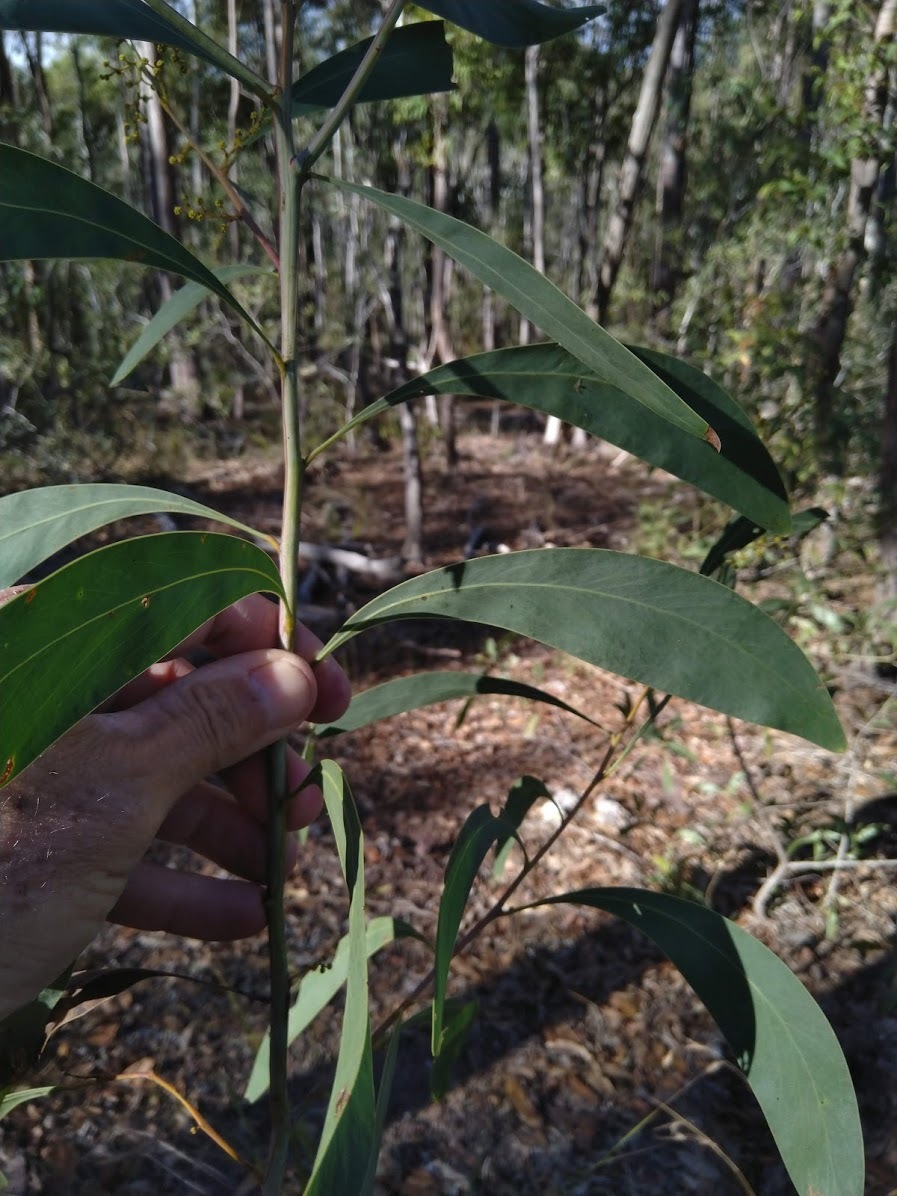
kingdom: Plantae
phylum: Tracheophyta
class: Magnoliopsida
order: Fabales
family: Fabaceae
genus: Acacia
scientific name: Acacia falcata
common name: Burra acacia
